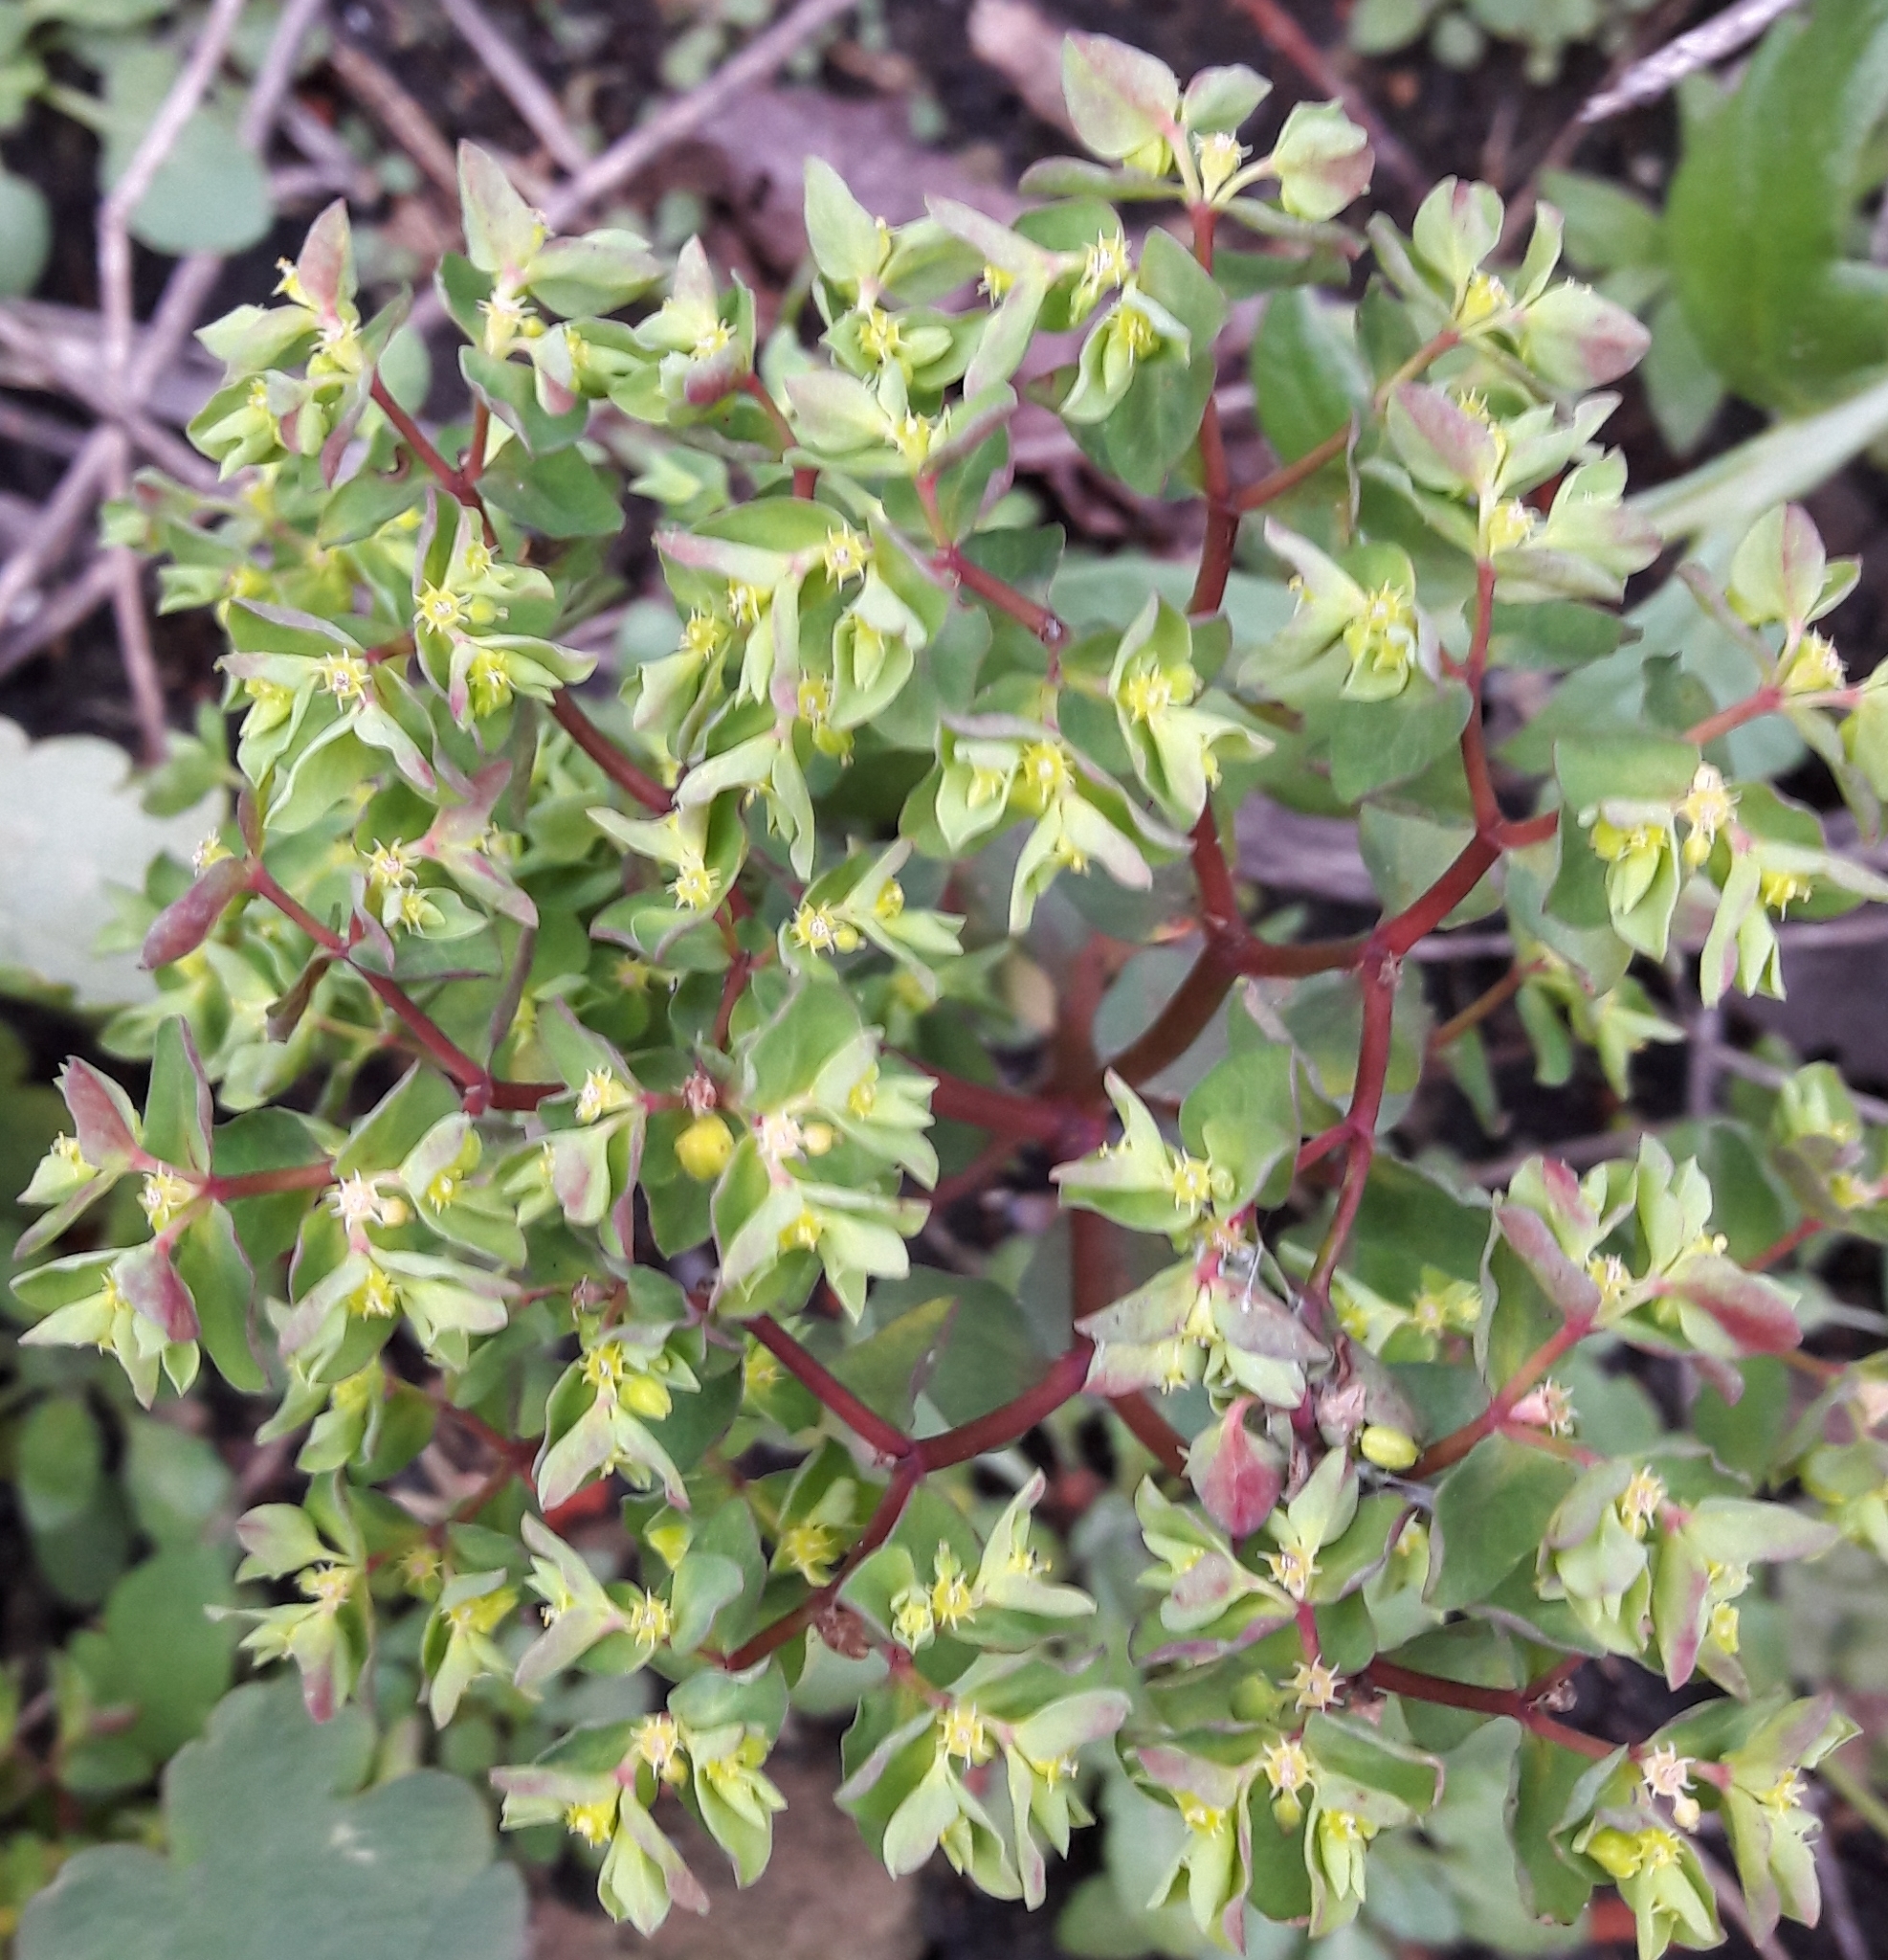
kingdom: Plantae
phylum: Tracheophyta
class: Magnoliopsida
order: Malpighiales
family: Euphorbiaceae
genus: Euphorbia
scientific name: Euphorbia peplus
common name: Petty spurge
